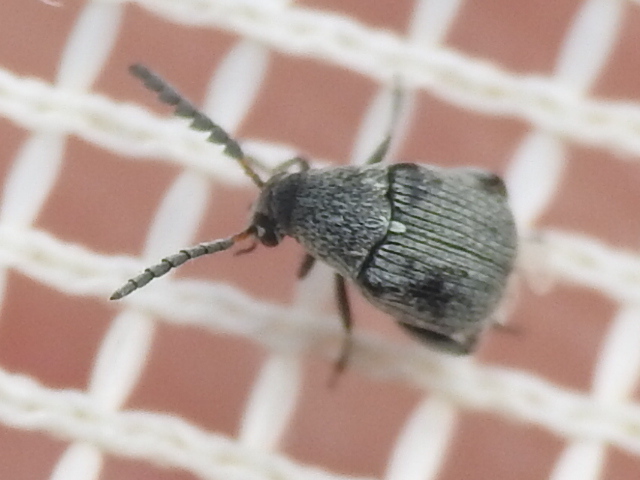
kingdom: Animalia
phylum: Arthropoda
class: Insecta
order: Coleoptera
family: Chrysomelidae
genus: Acanthoscelides
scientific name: Acanthoscelides compressicornis
